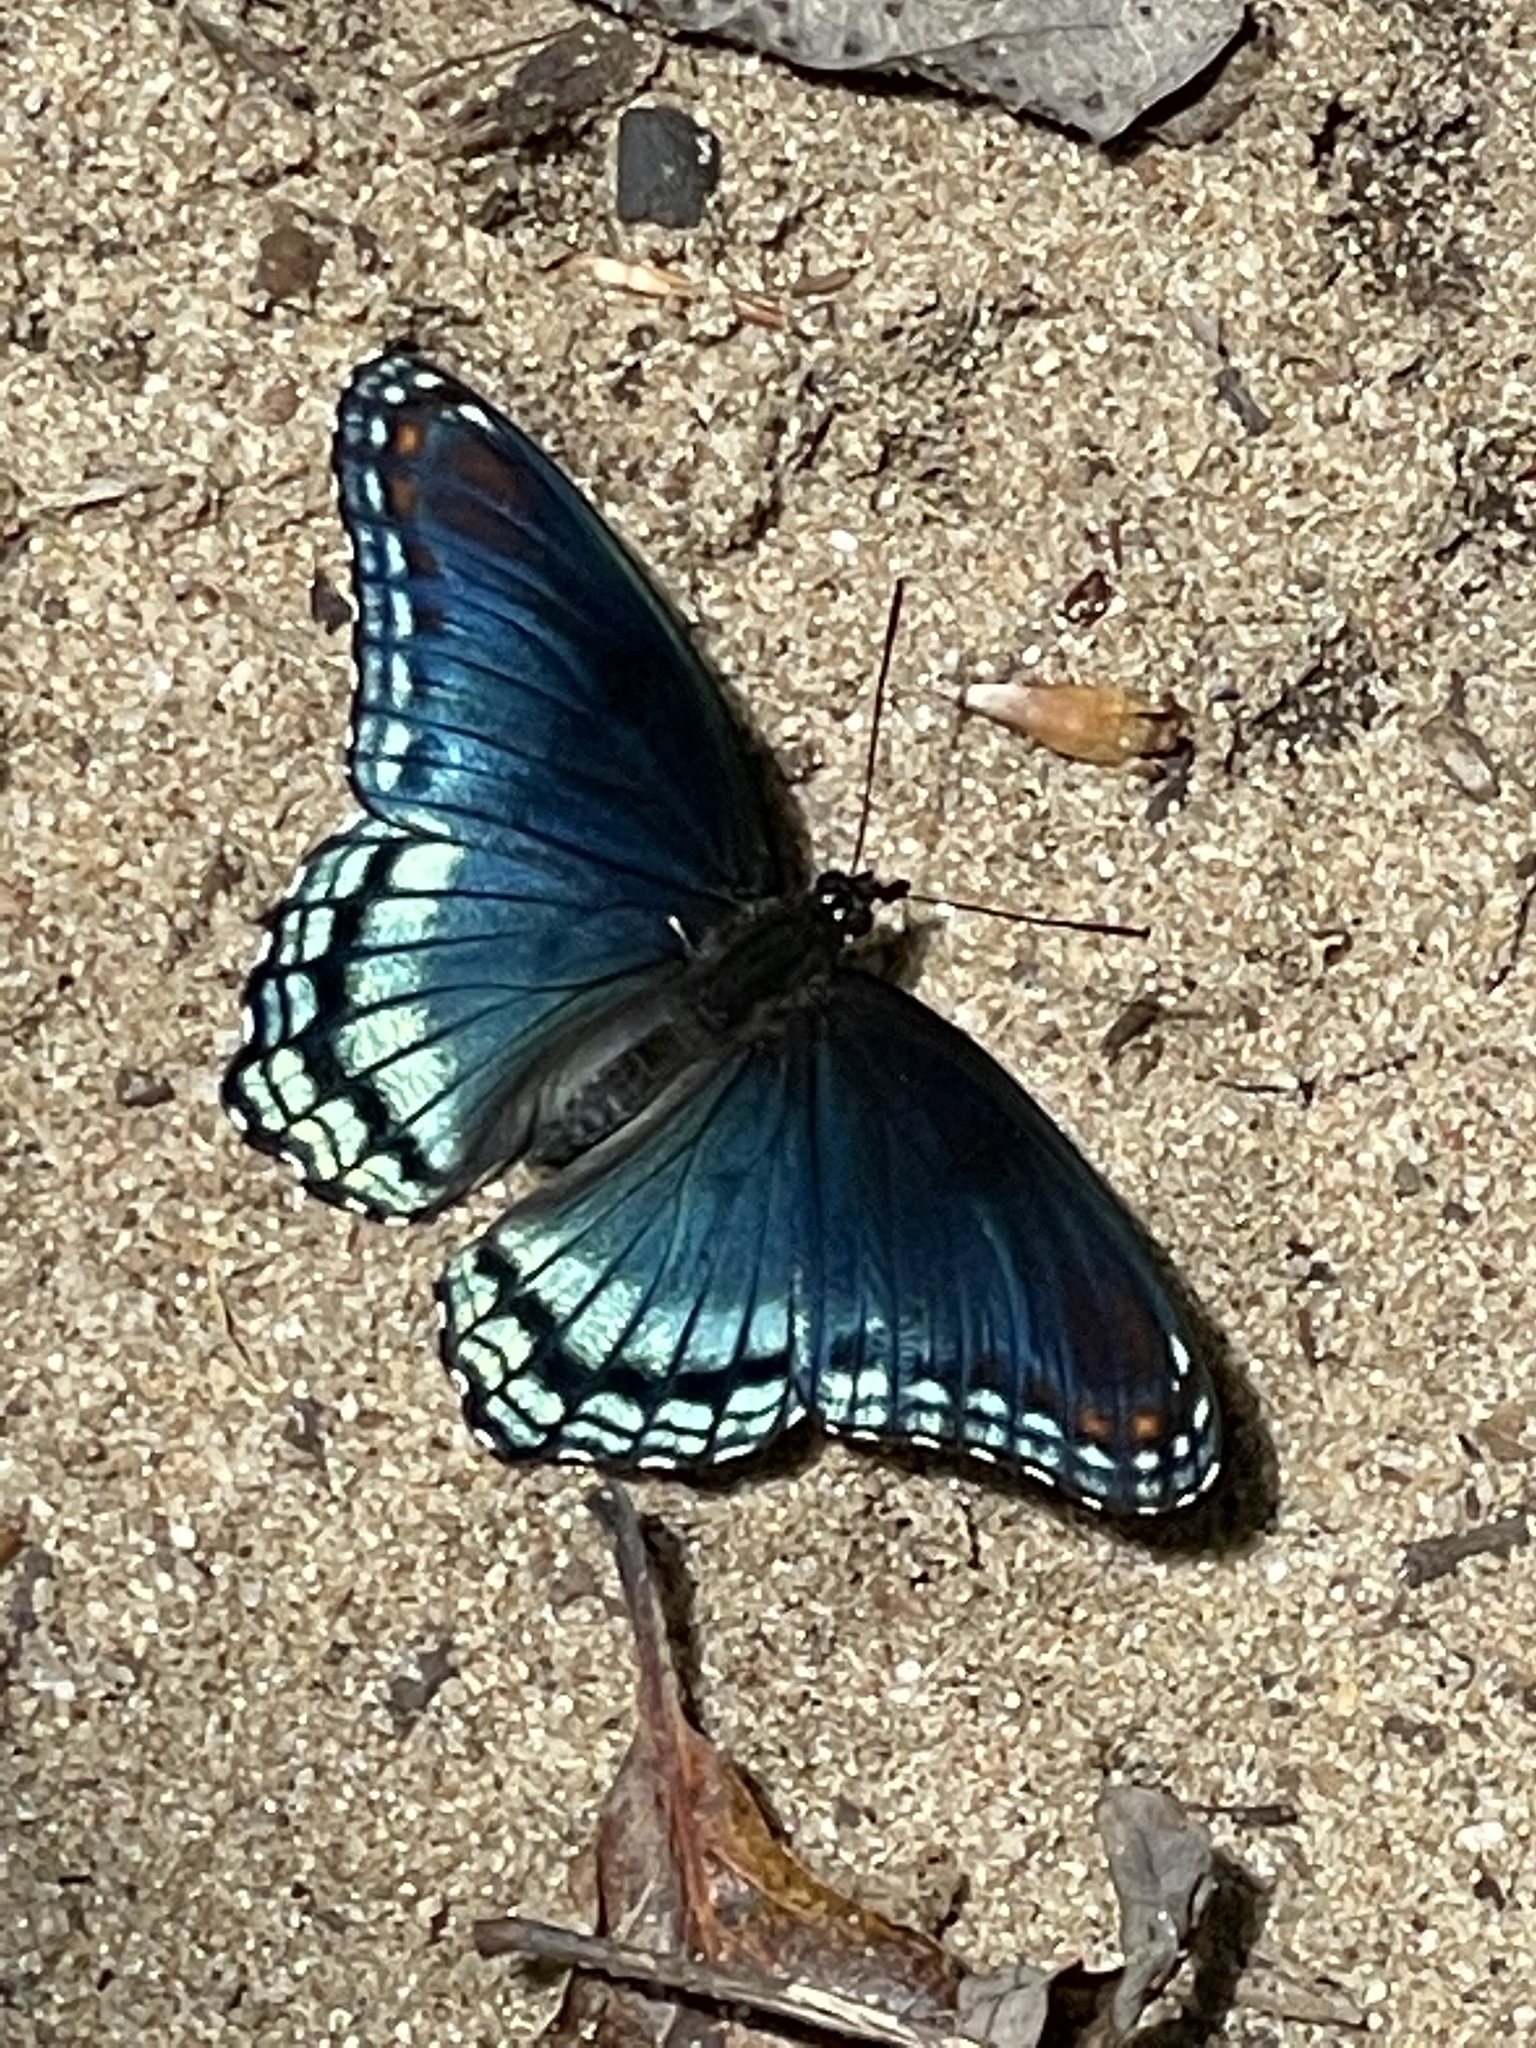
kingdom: Animalia
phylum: Arthropoda
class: Insecta
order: Lepidoptera
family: Nymphalidae
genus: Limenitis
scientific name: Limenitis arthemis
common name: Red-spotted admiral
